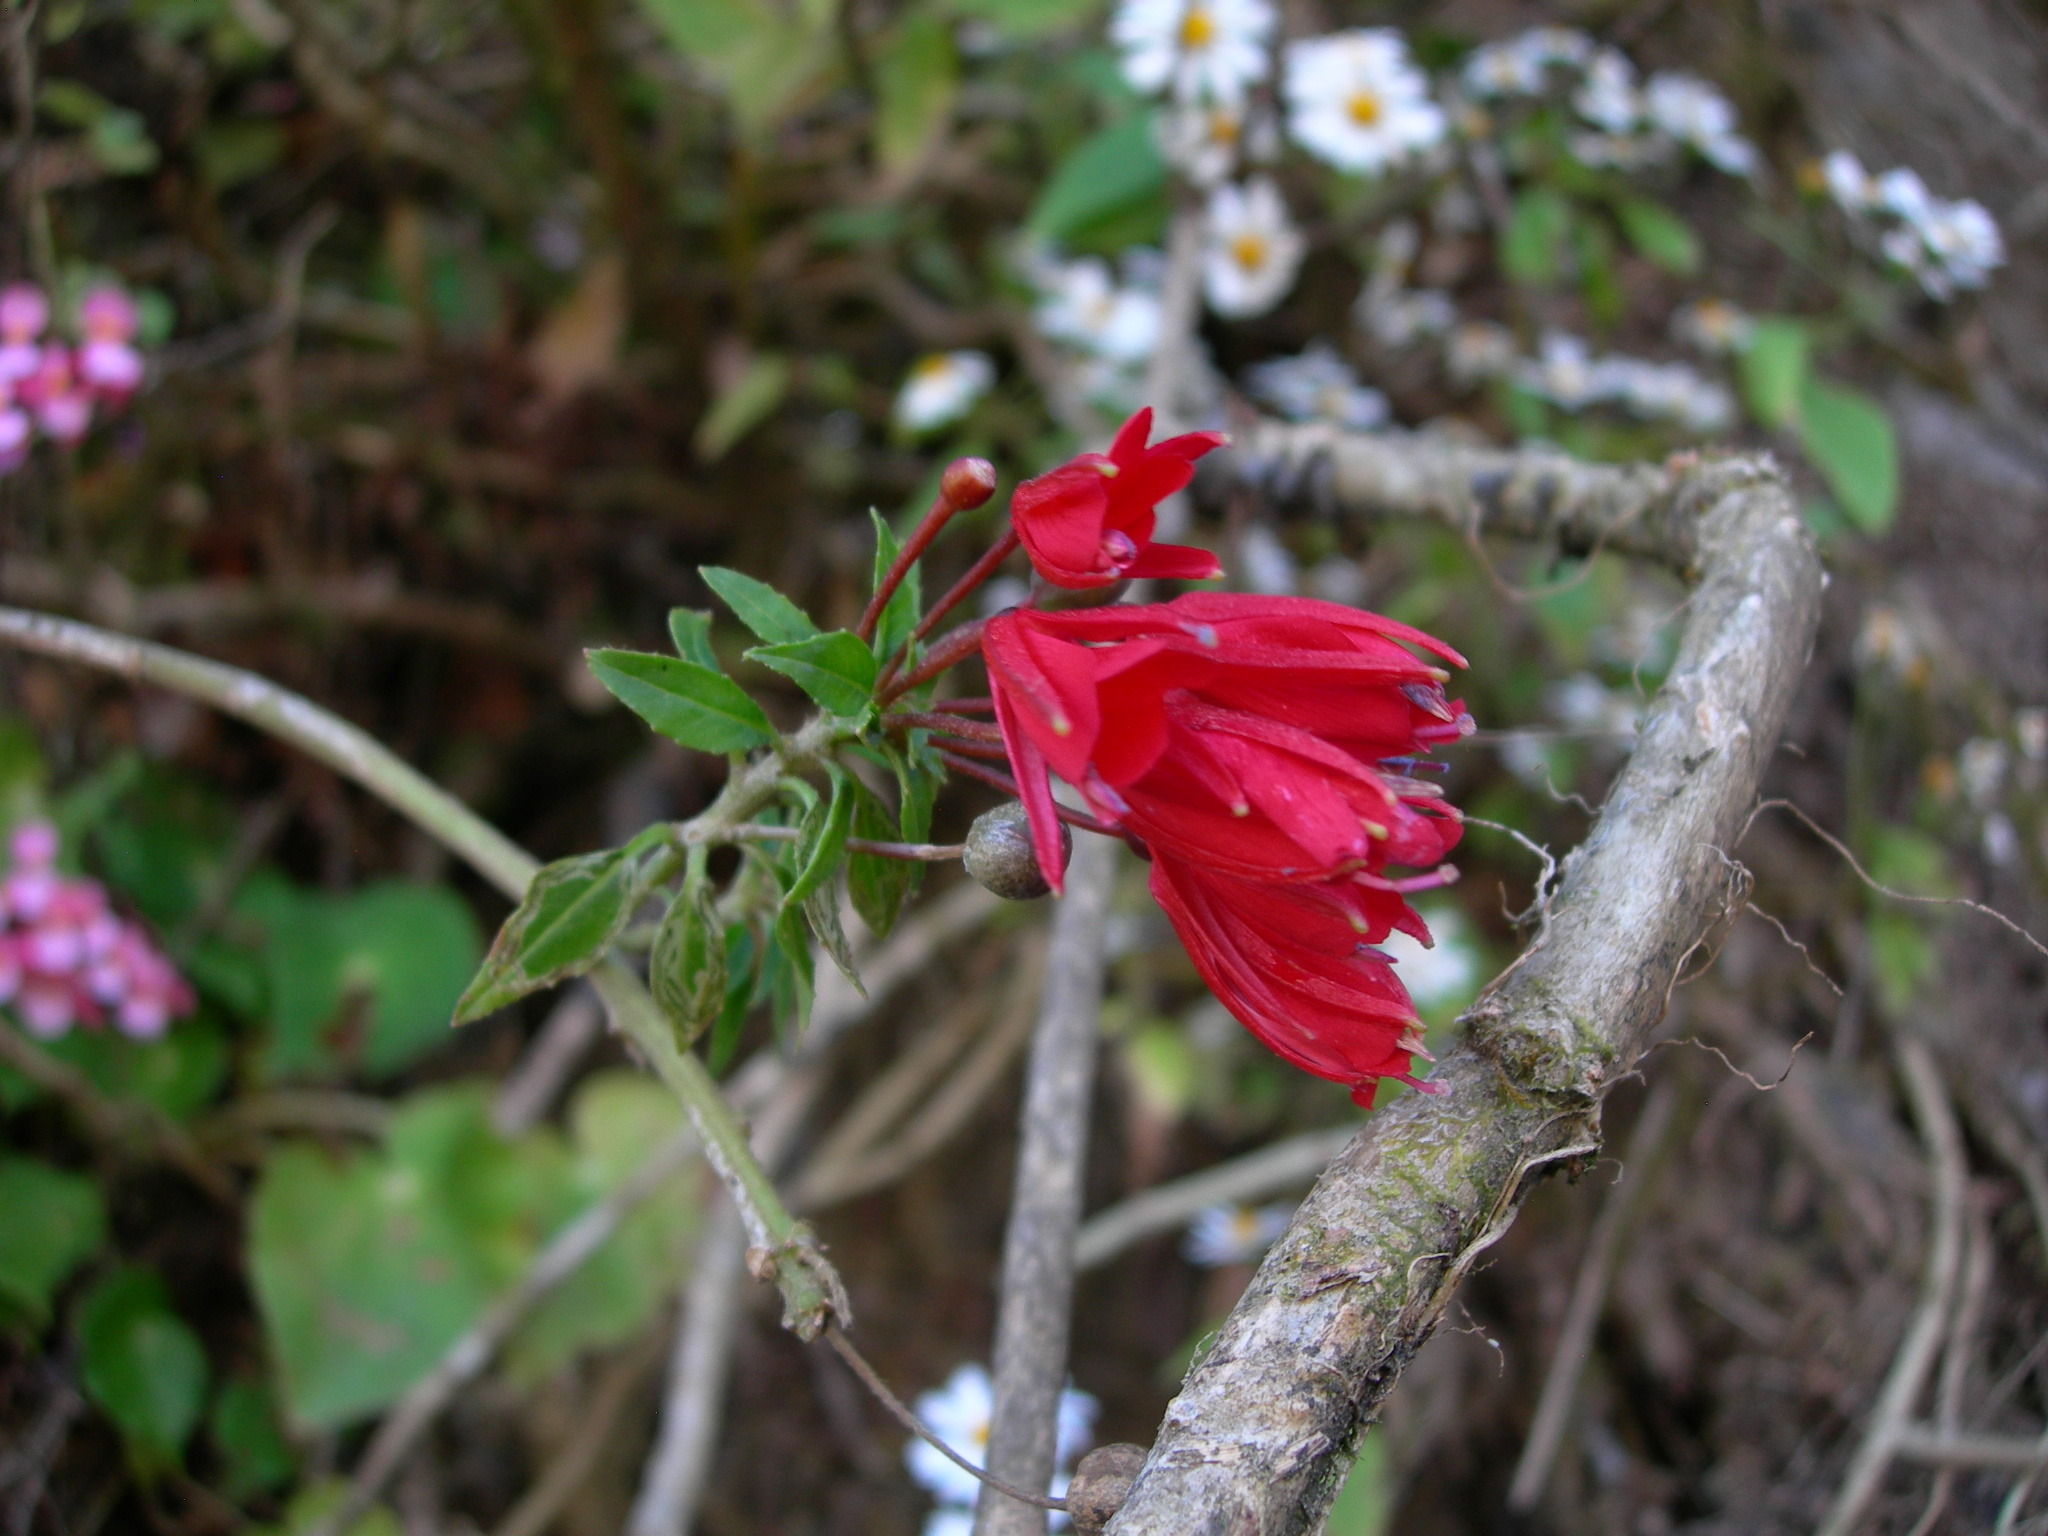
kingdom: Plantae
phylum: Tracheophyta
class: Magnoliopsida
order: Myrtales
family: Onagraceae
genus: Lopezia
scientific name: Lopezia grandiflora
